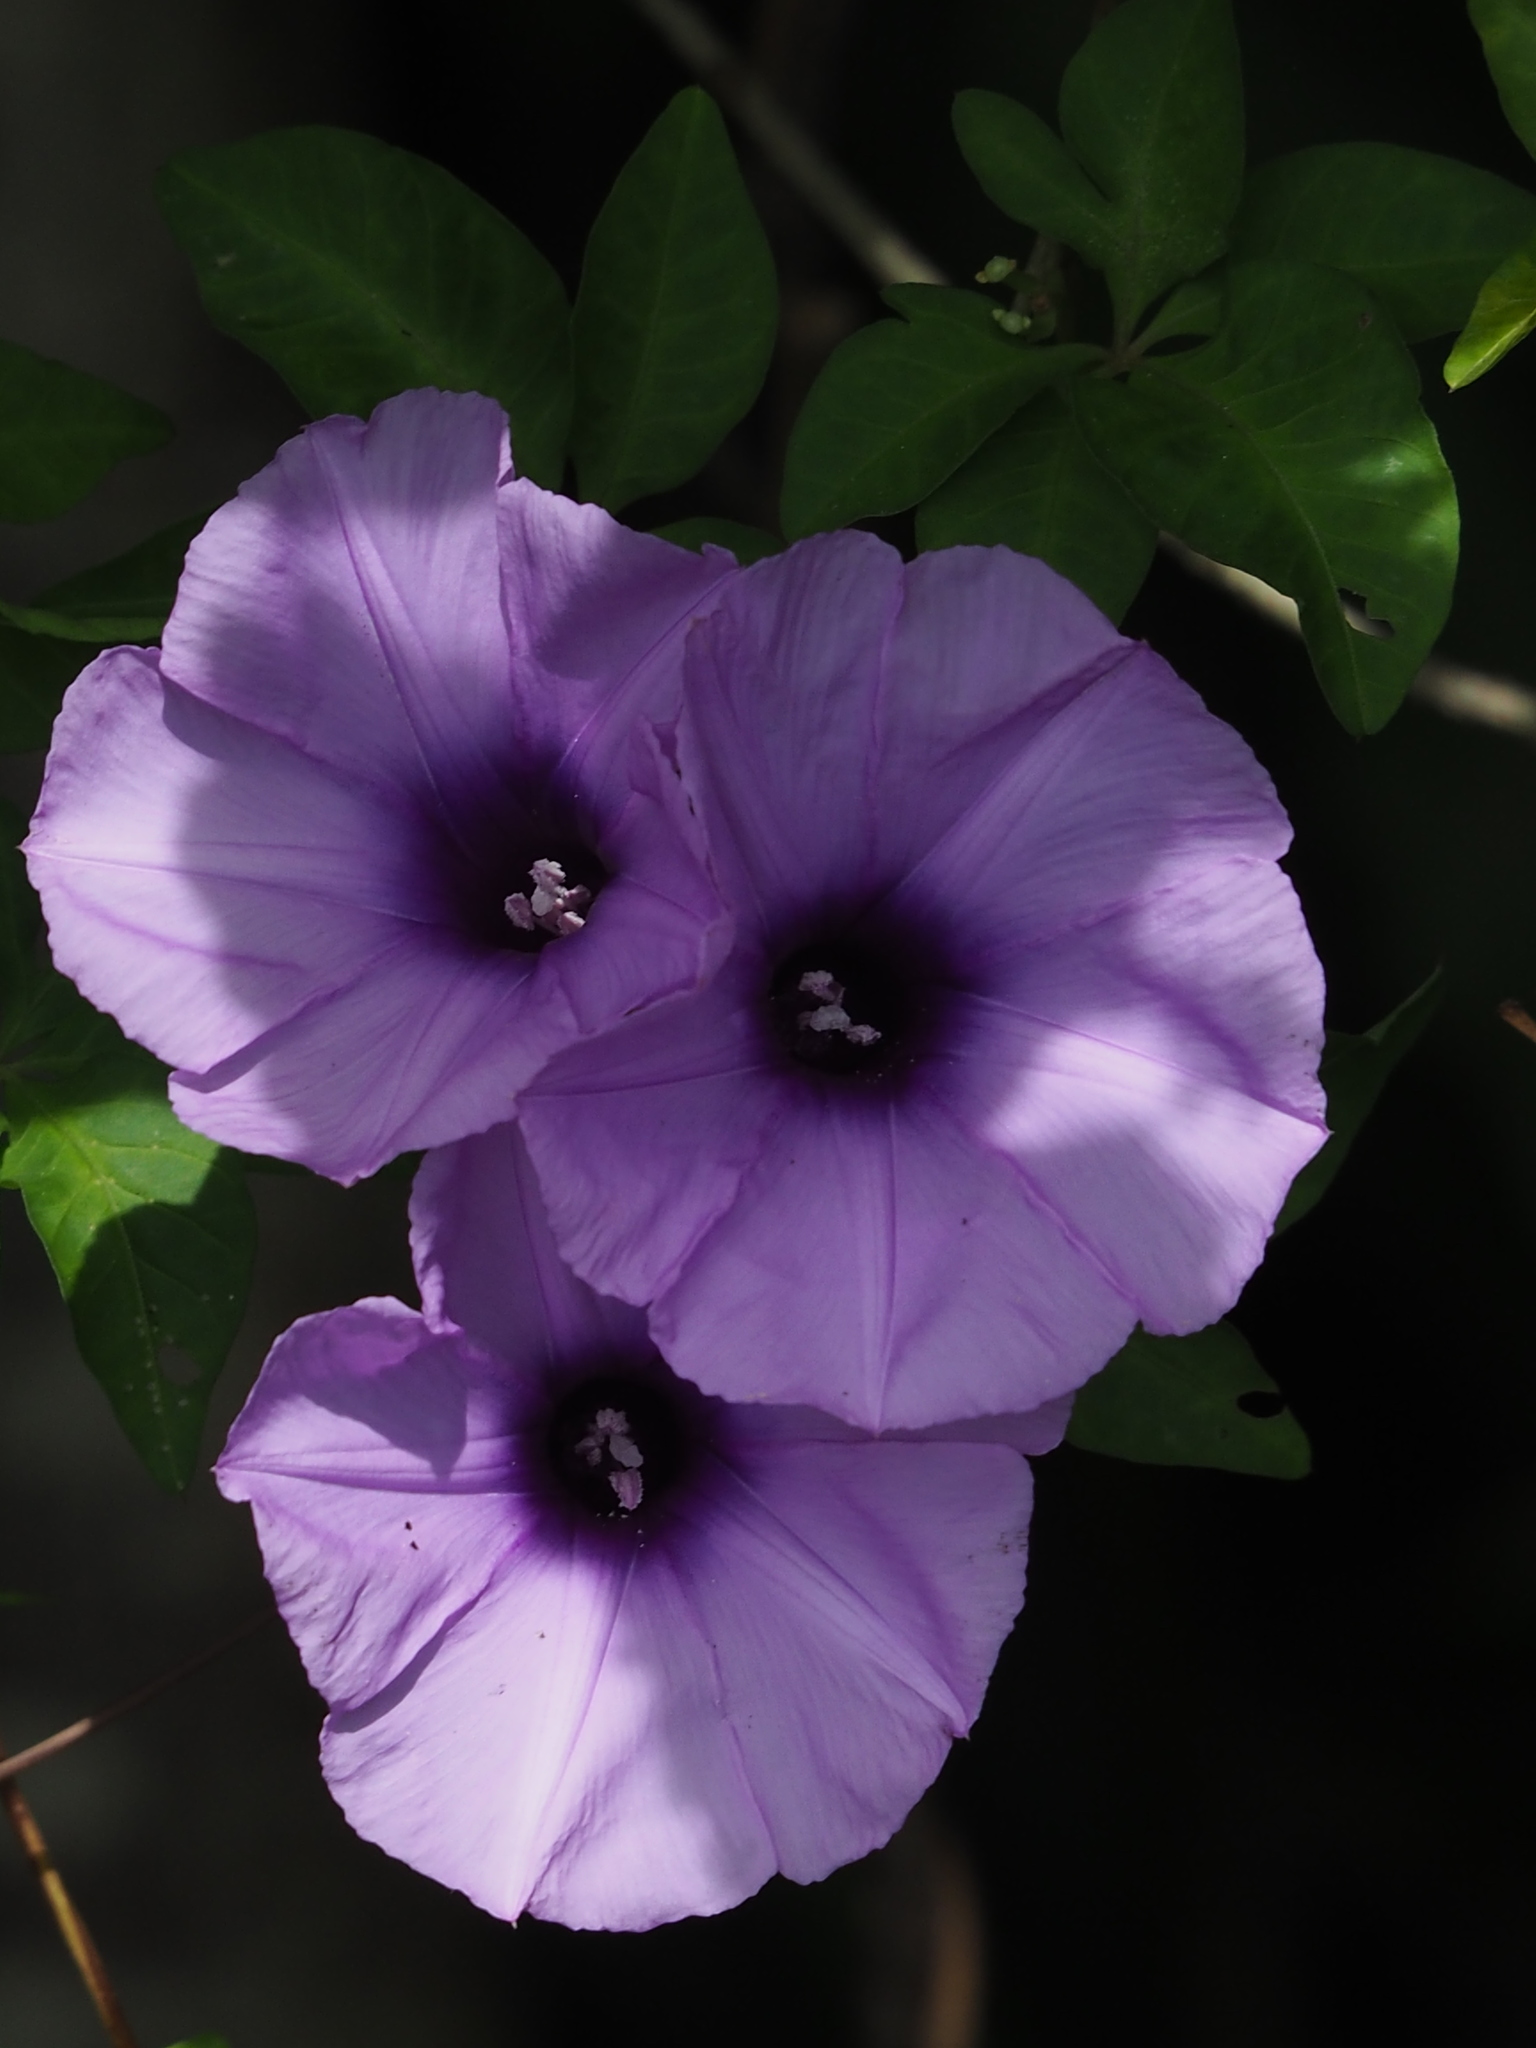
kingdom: Plantae
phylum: Tracheophyta
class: Magnoliopsida
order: Solanales
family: Convolvulaceae
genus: Ipomoea
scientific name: Ipomoea cairica
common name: Mile a minute vine
